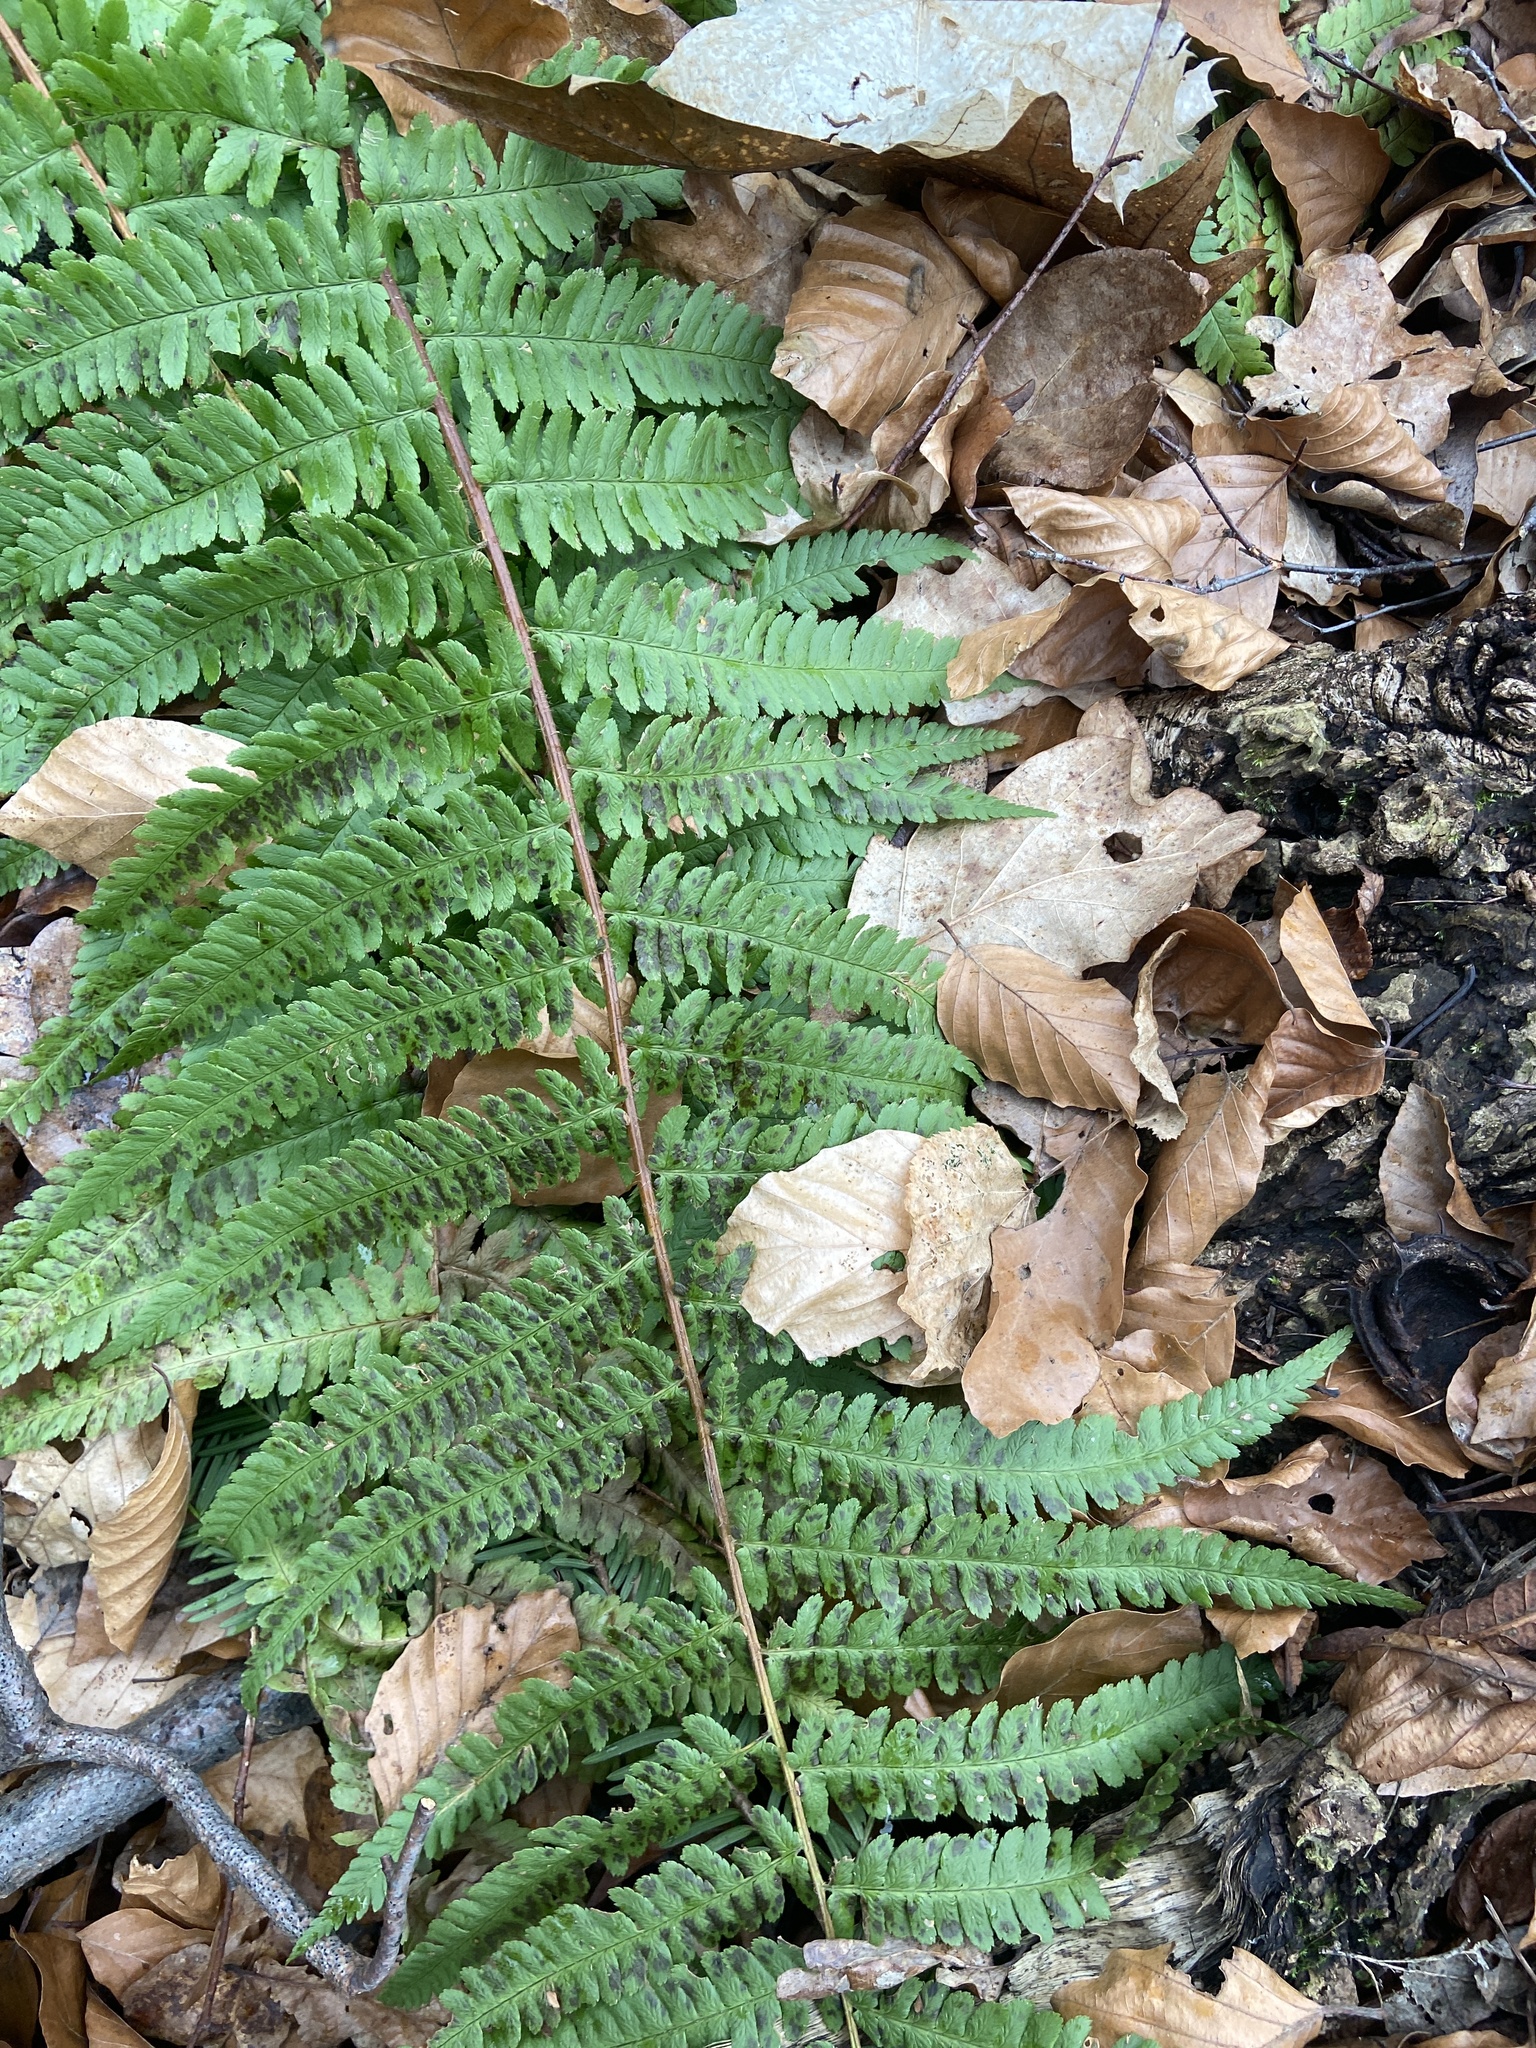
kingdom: Plantae
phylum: Tracheophyta
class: Polypodiopsida
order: Polypodiales
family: Dryopteridaceae
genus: Dryopteris
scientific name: Dryopteris filix-mas
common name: Male fern
